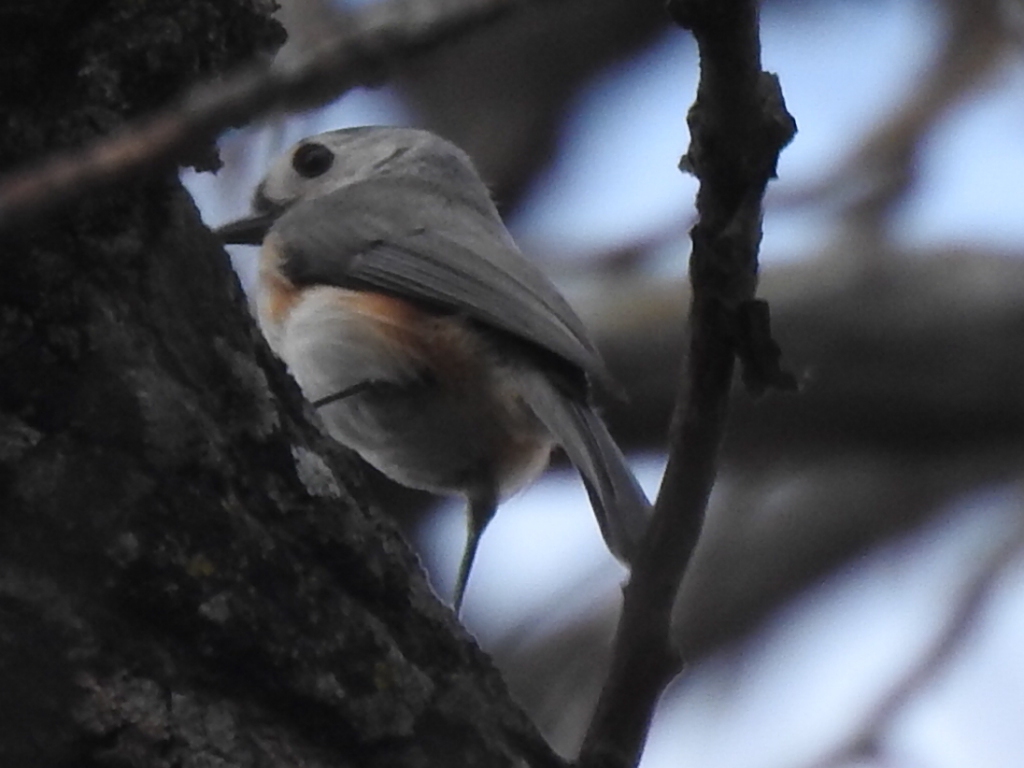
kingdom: Animalia
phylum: Chordata
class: Aves
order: Passeriformes
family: Paridae
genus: Baeolophus
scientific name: Baeolophus bicolor
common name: Tufted titmouse
